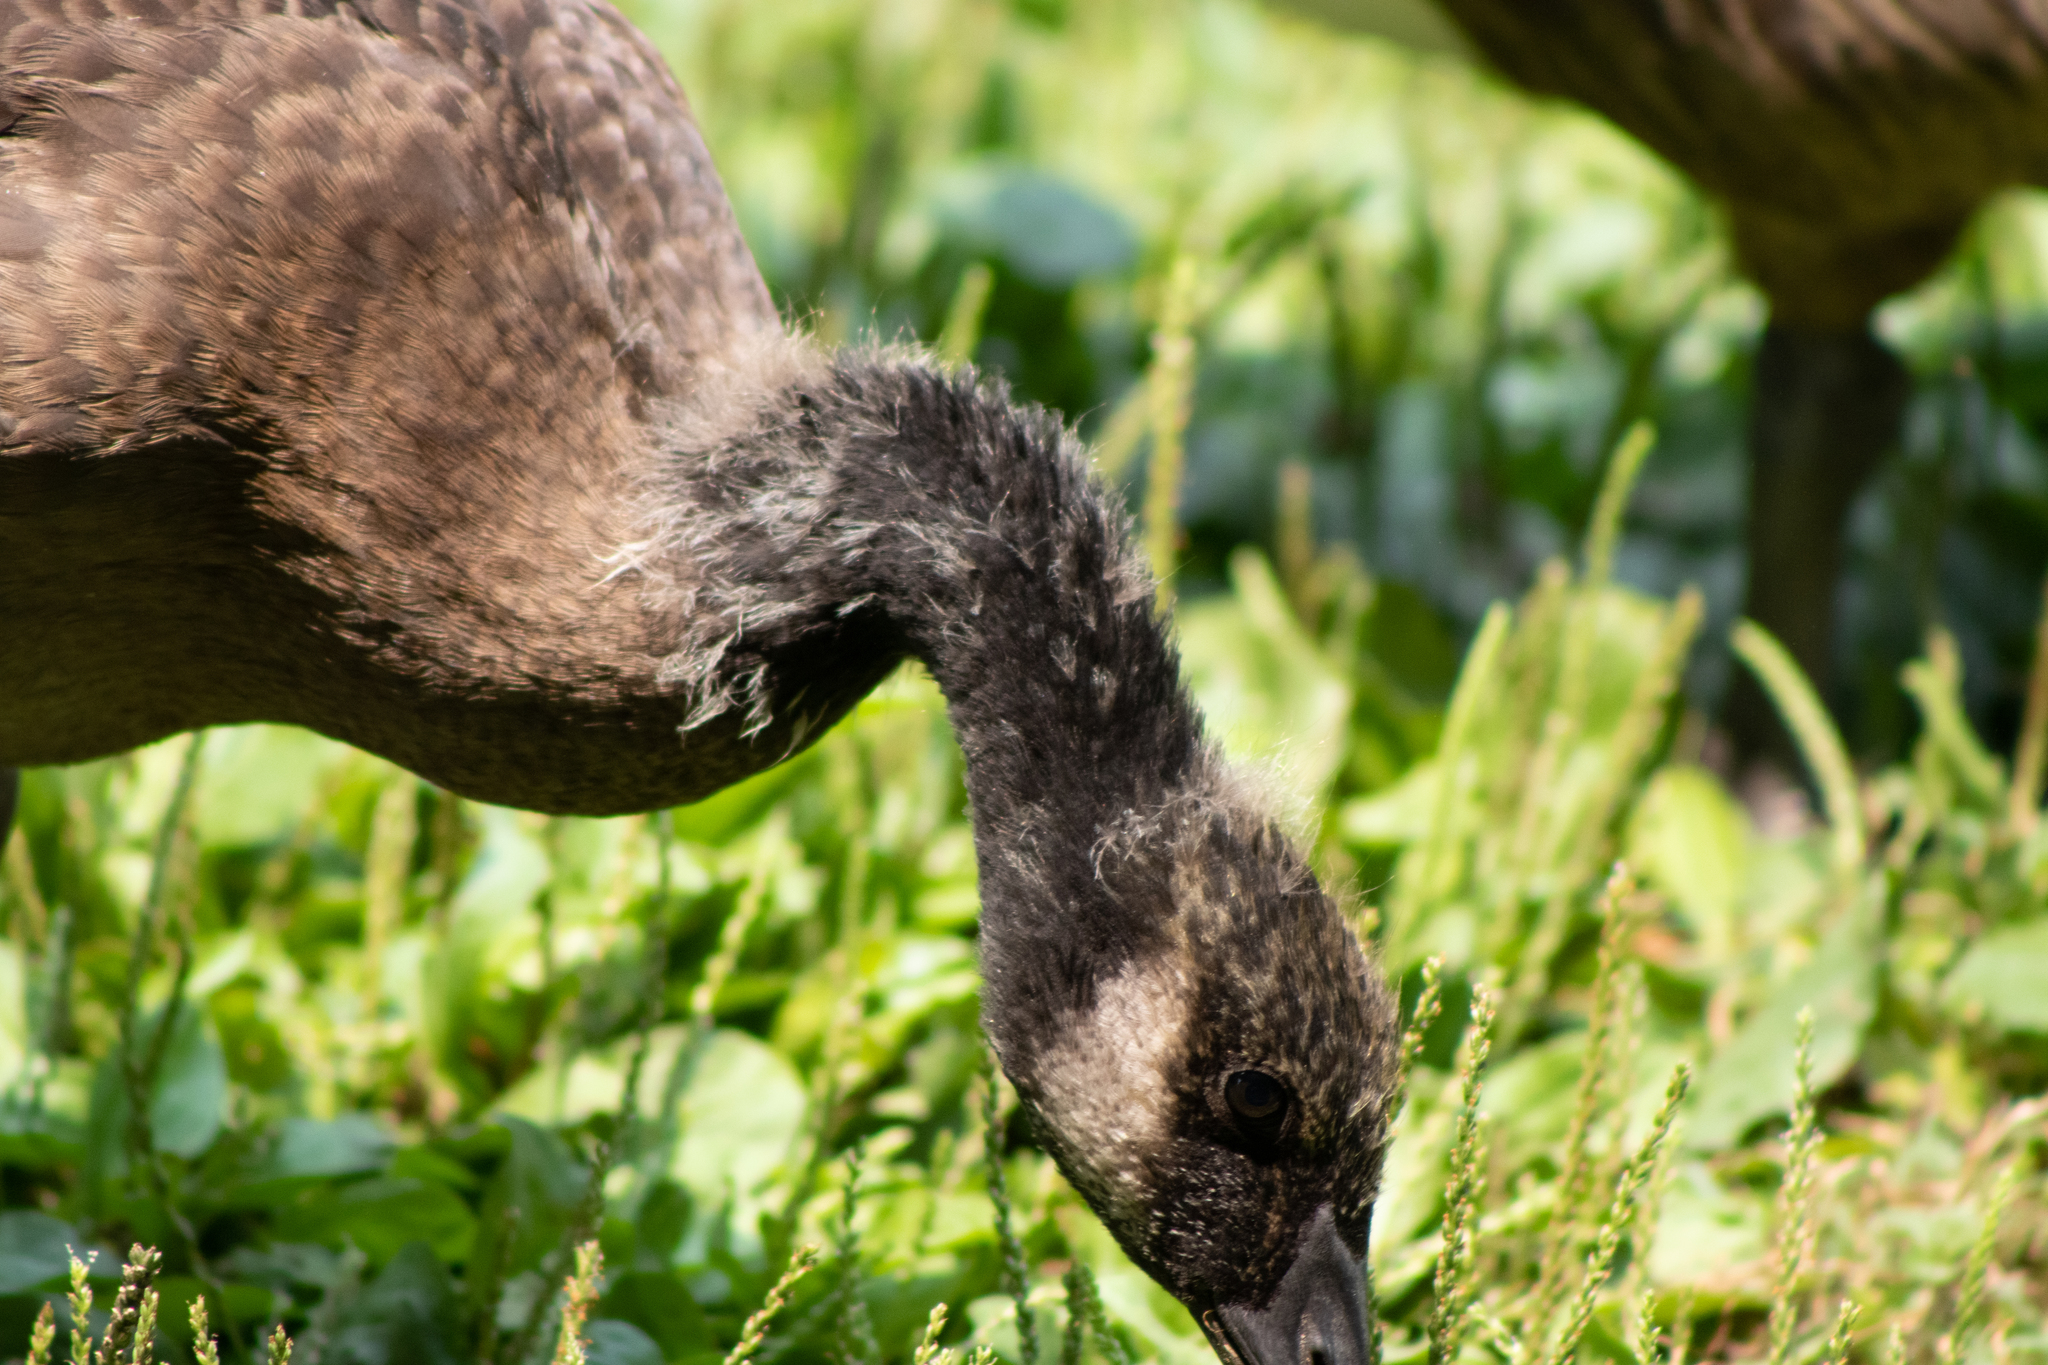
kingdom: Animalia
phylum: Chordata
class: Aves
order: Anseriformes
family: Anatidae
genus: Branta
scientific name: Branta canadensis
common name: Canada goose
